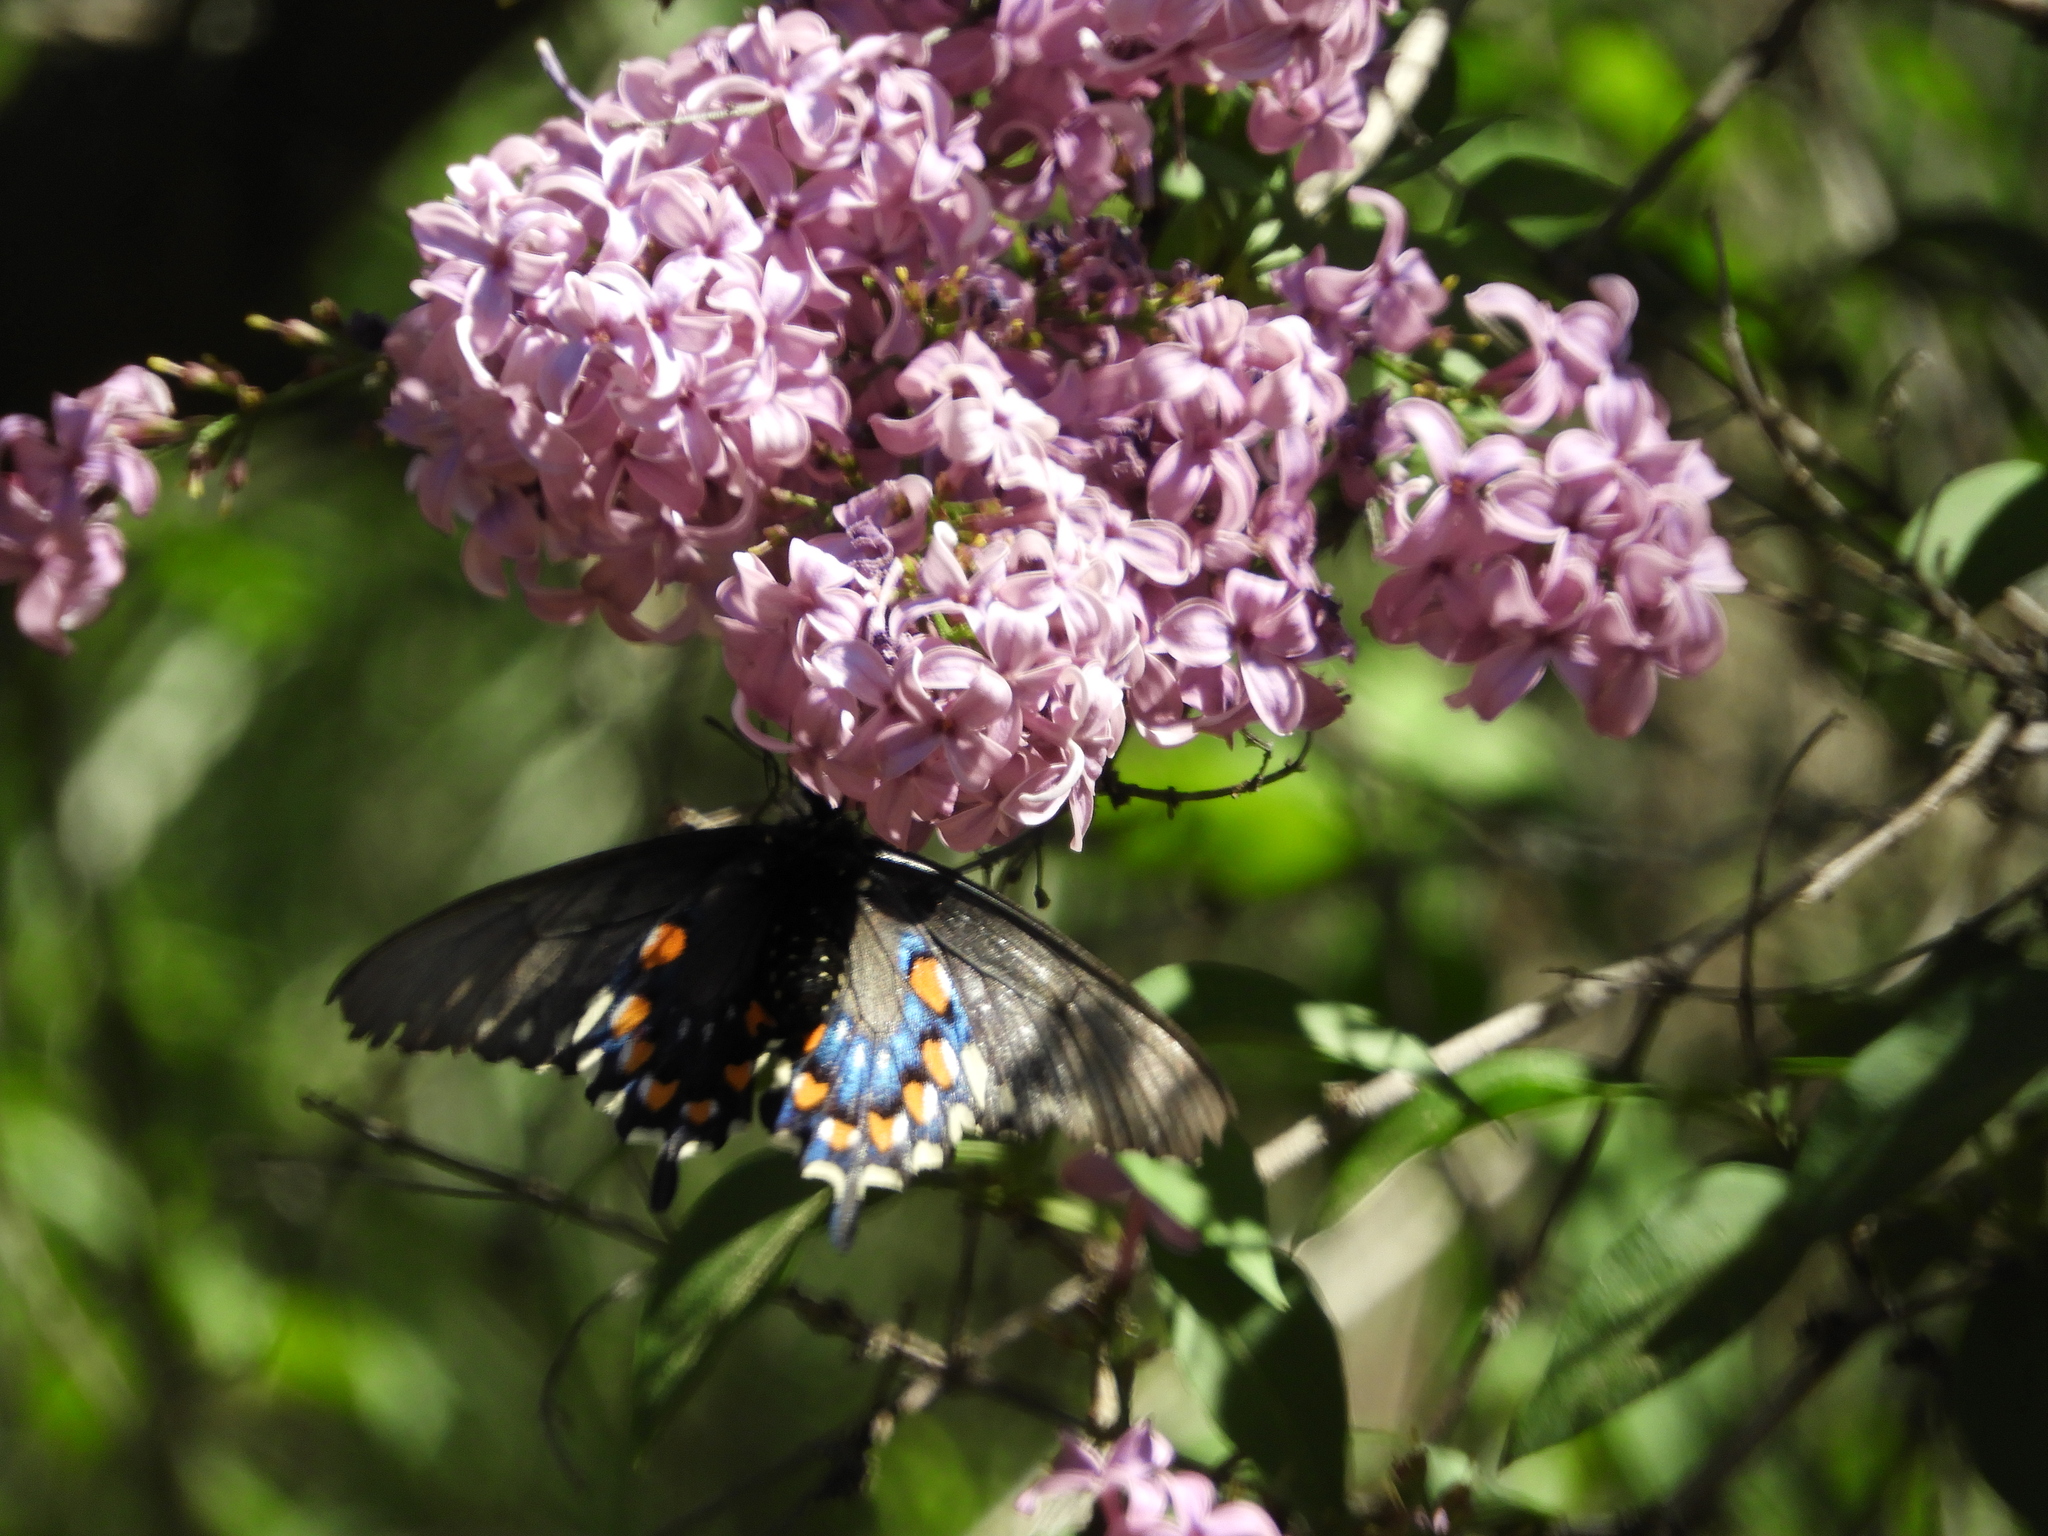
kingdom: Animalia
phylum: Arthropoda
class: Insecta
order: Lepidoptera
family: Papilionidae
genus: Battus
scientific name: Battus philenor
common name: Pipevine swallowtail
